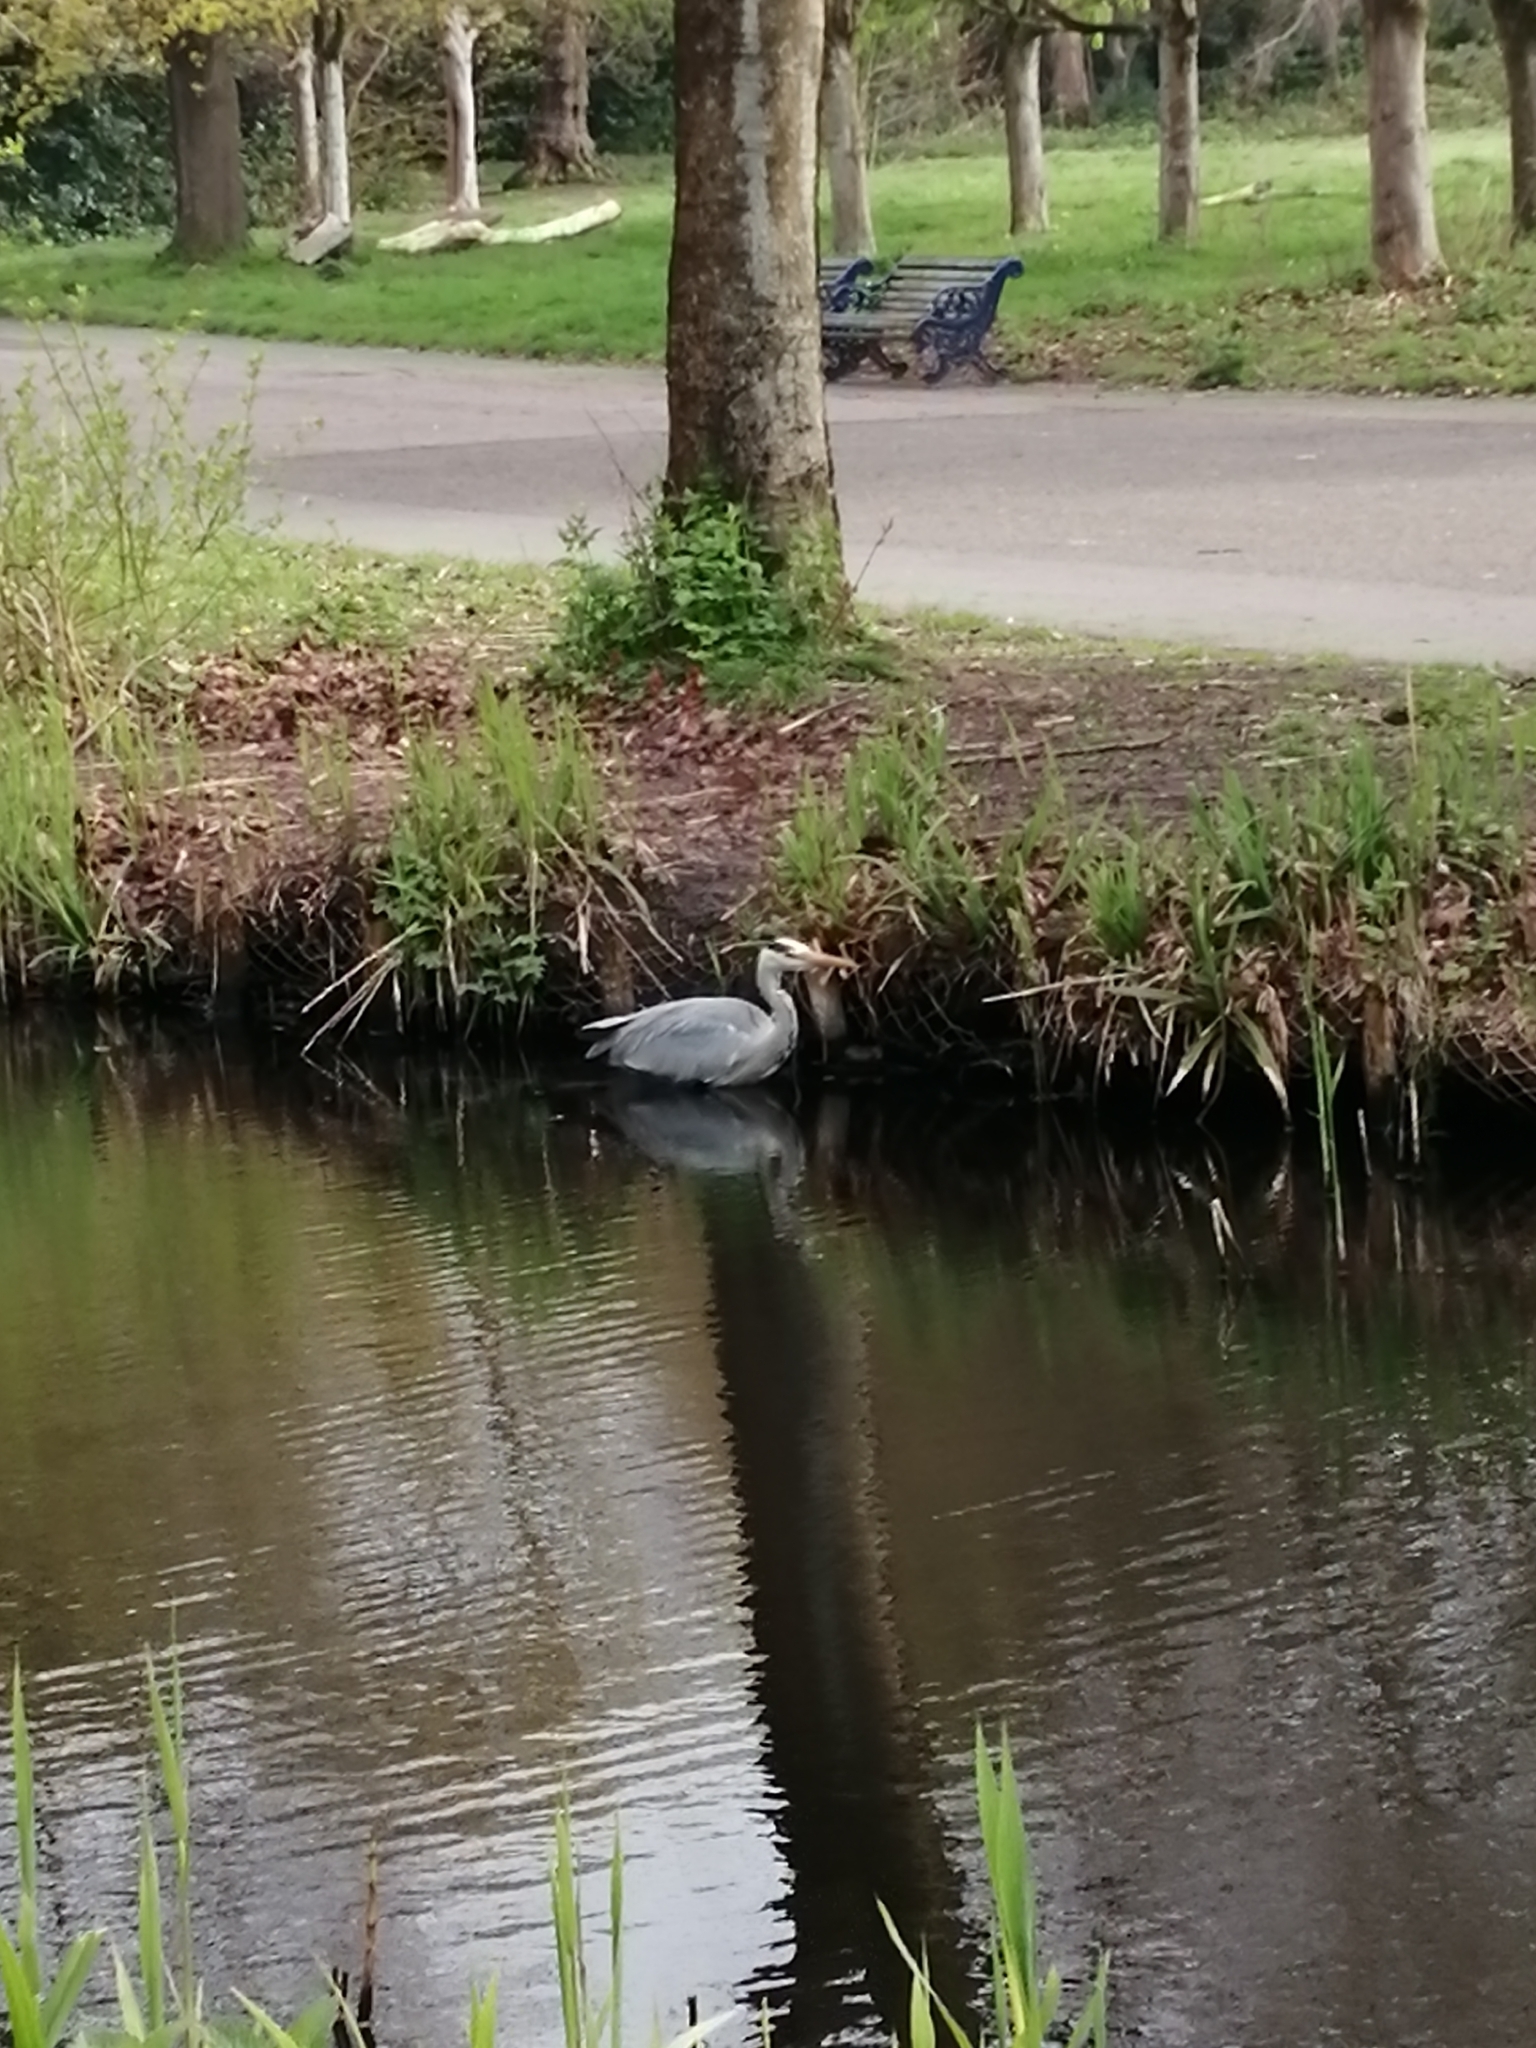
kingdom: Animalia
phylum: Chordata
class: Aves
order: Pelecaniformes
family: Ardeidae
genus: Ardea
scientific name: Ardea cinerea
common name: Grey heron
